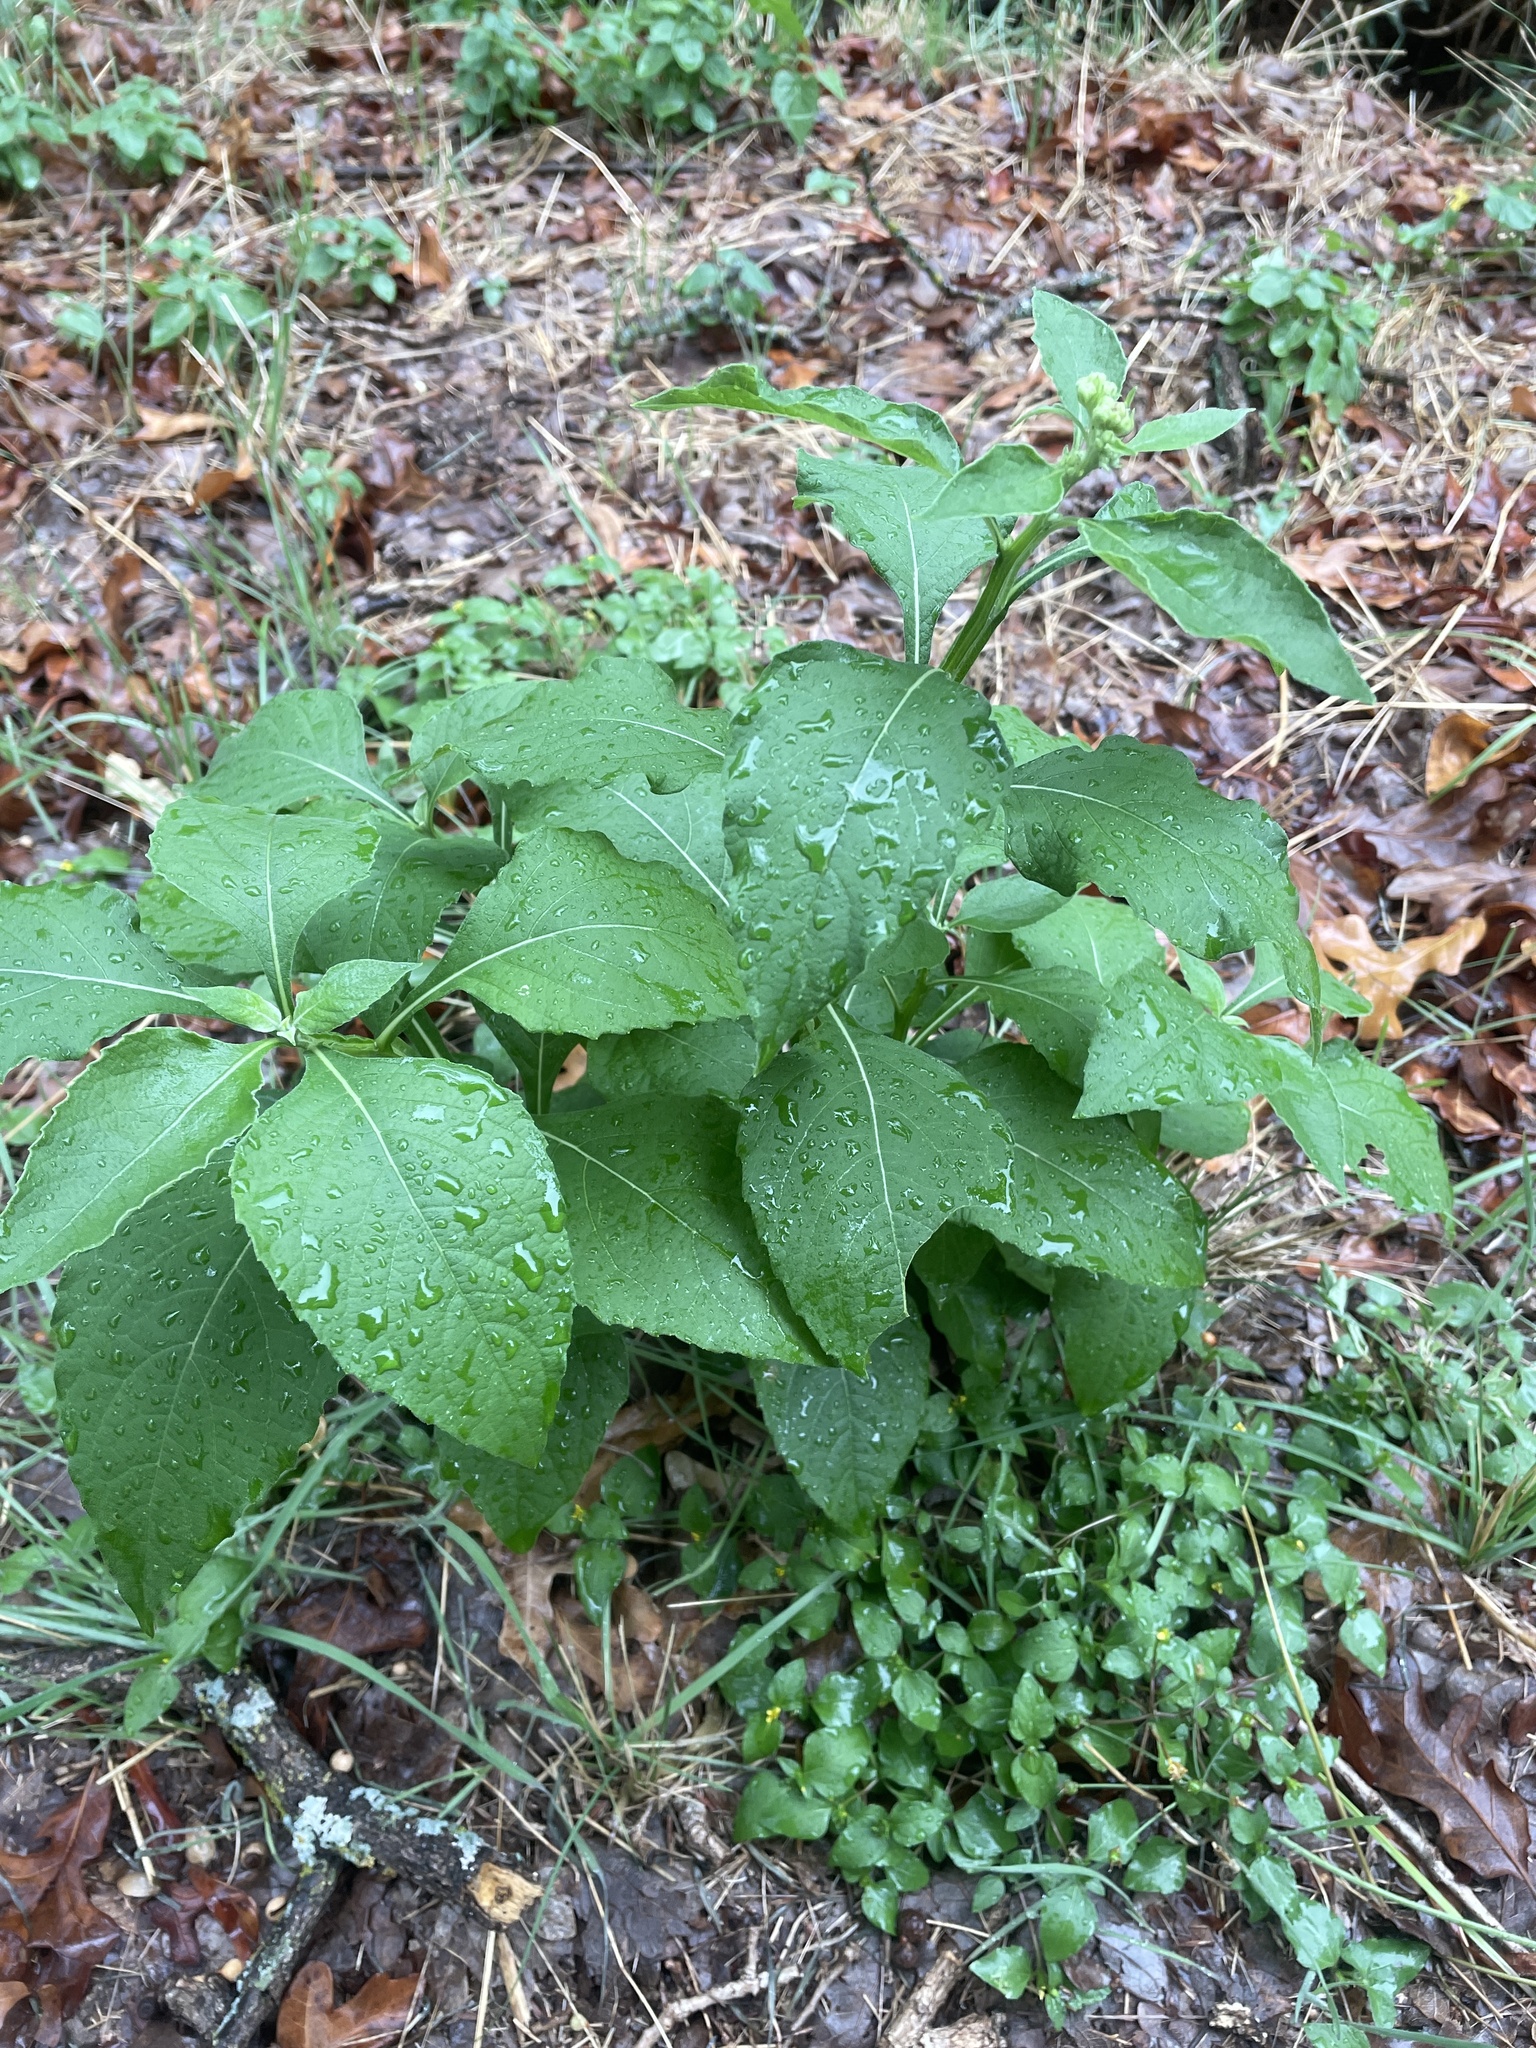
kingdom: Plantae
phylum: Tracheophyta
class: Magnoliopsida
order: Asterales
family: Asteraceae
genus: Verbesina
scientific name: Verbesina virginica
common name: Frostweed
